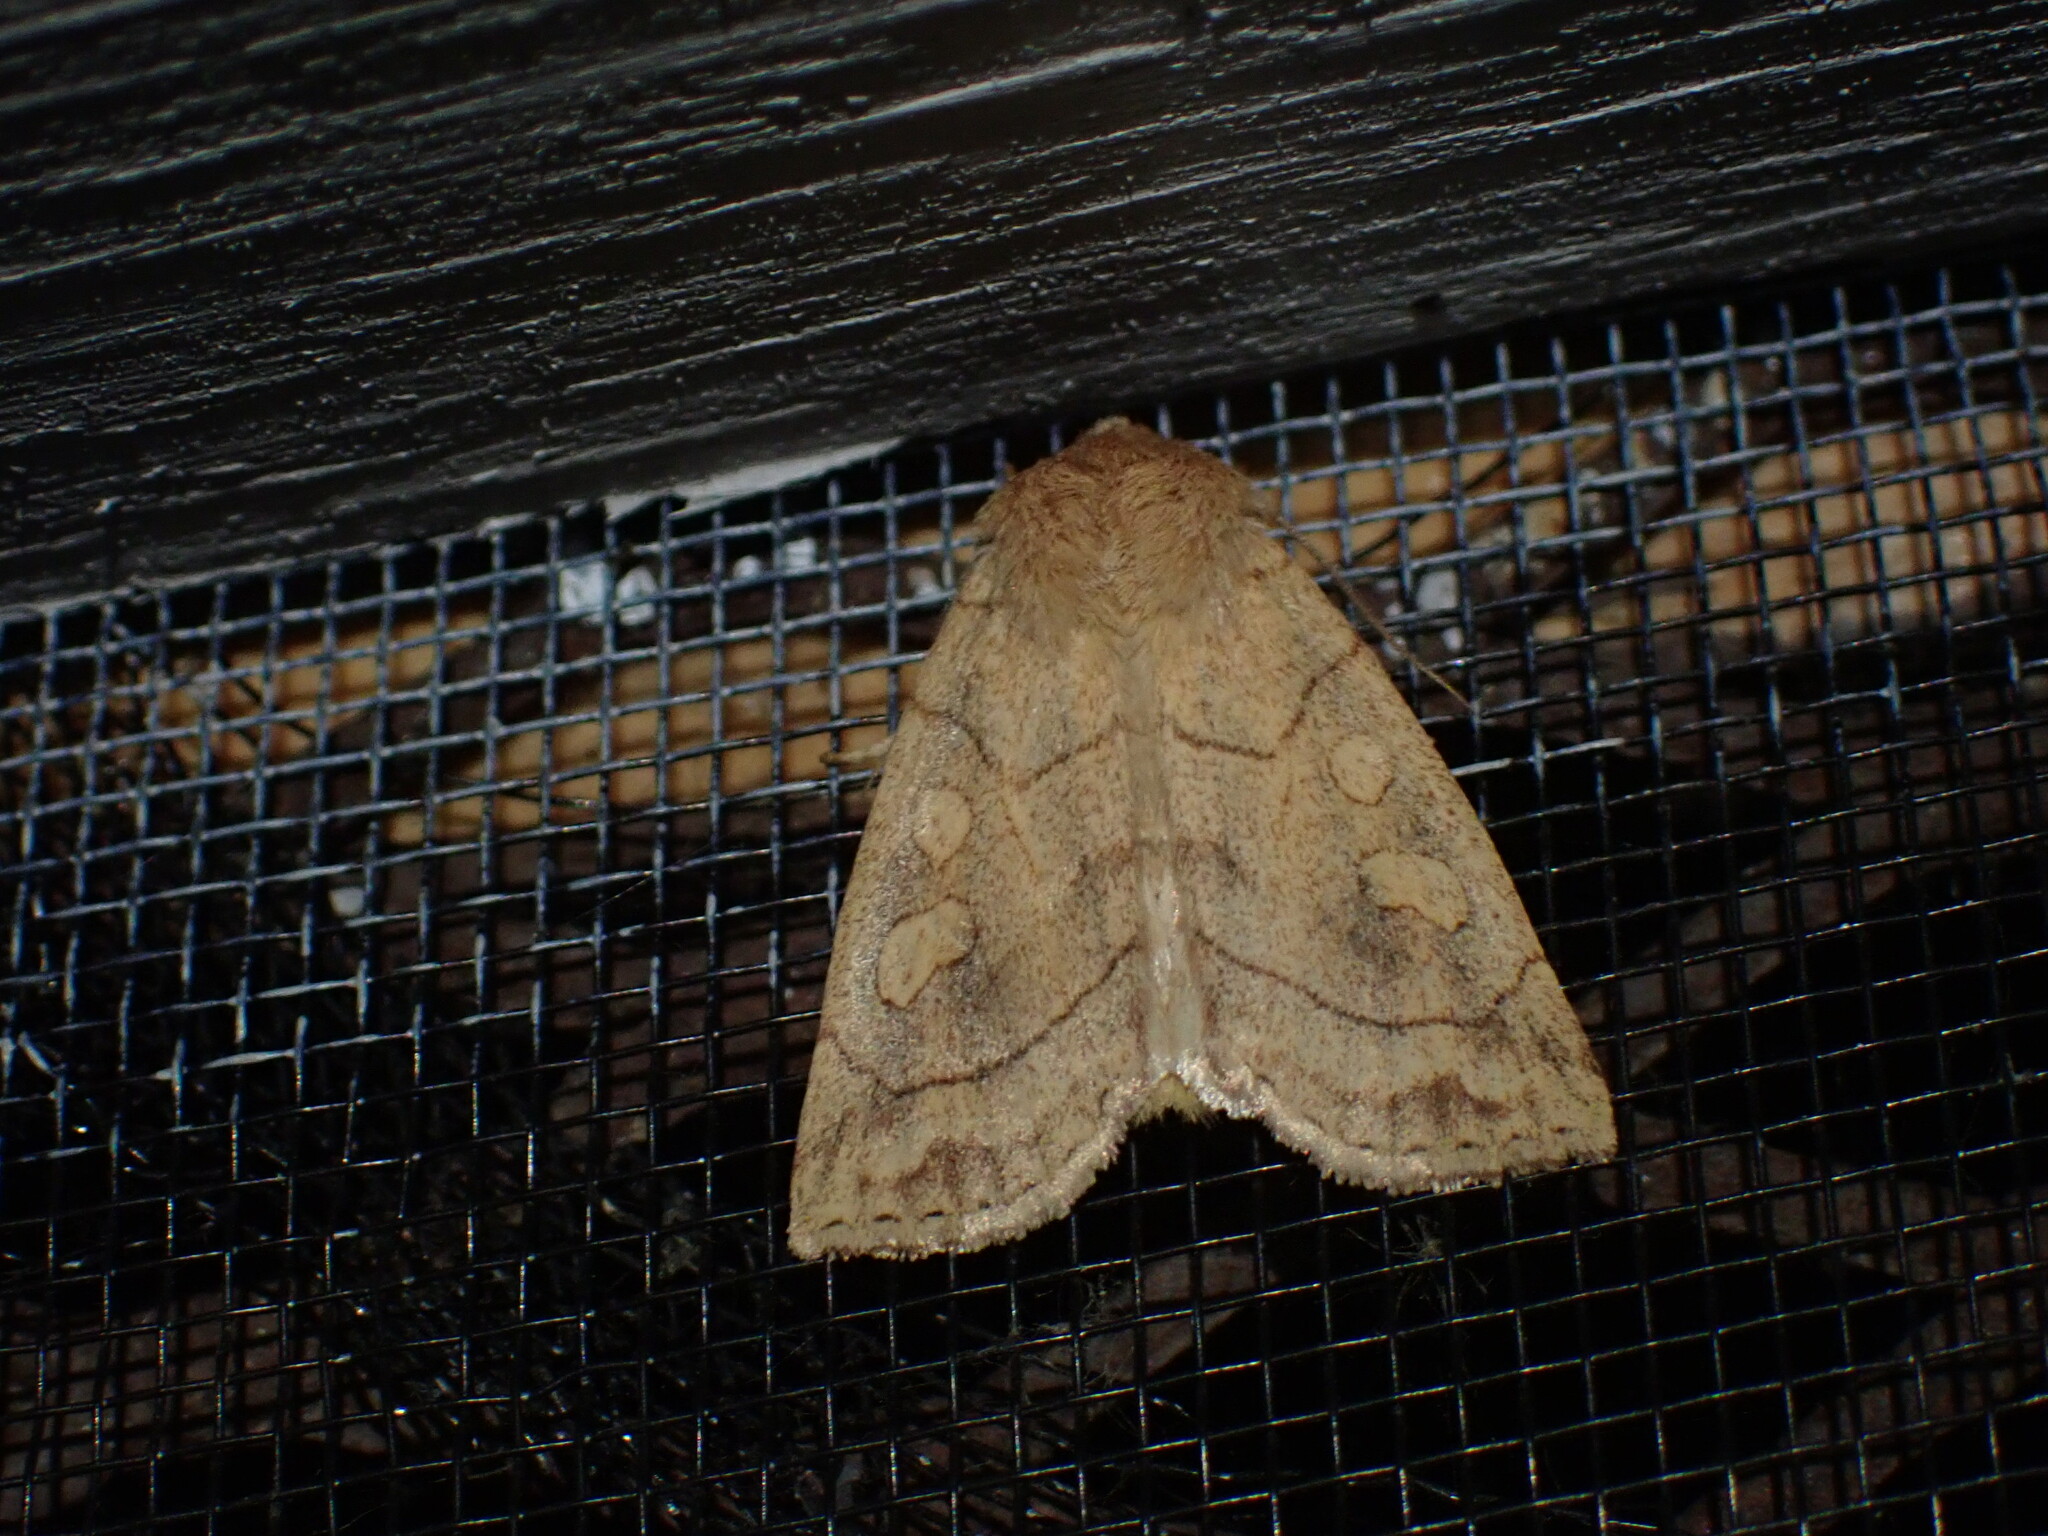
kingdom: Animalia
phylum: Arthropoda
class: Insecta
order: Lepidoptera
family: Noctuidae
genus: Enargia
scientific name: Enargia decolor
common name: Aspen twoleaf tier moth
